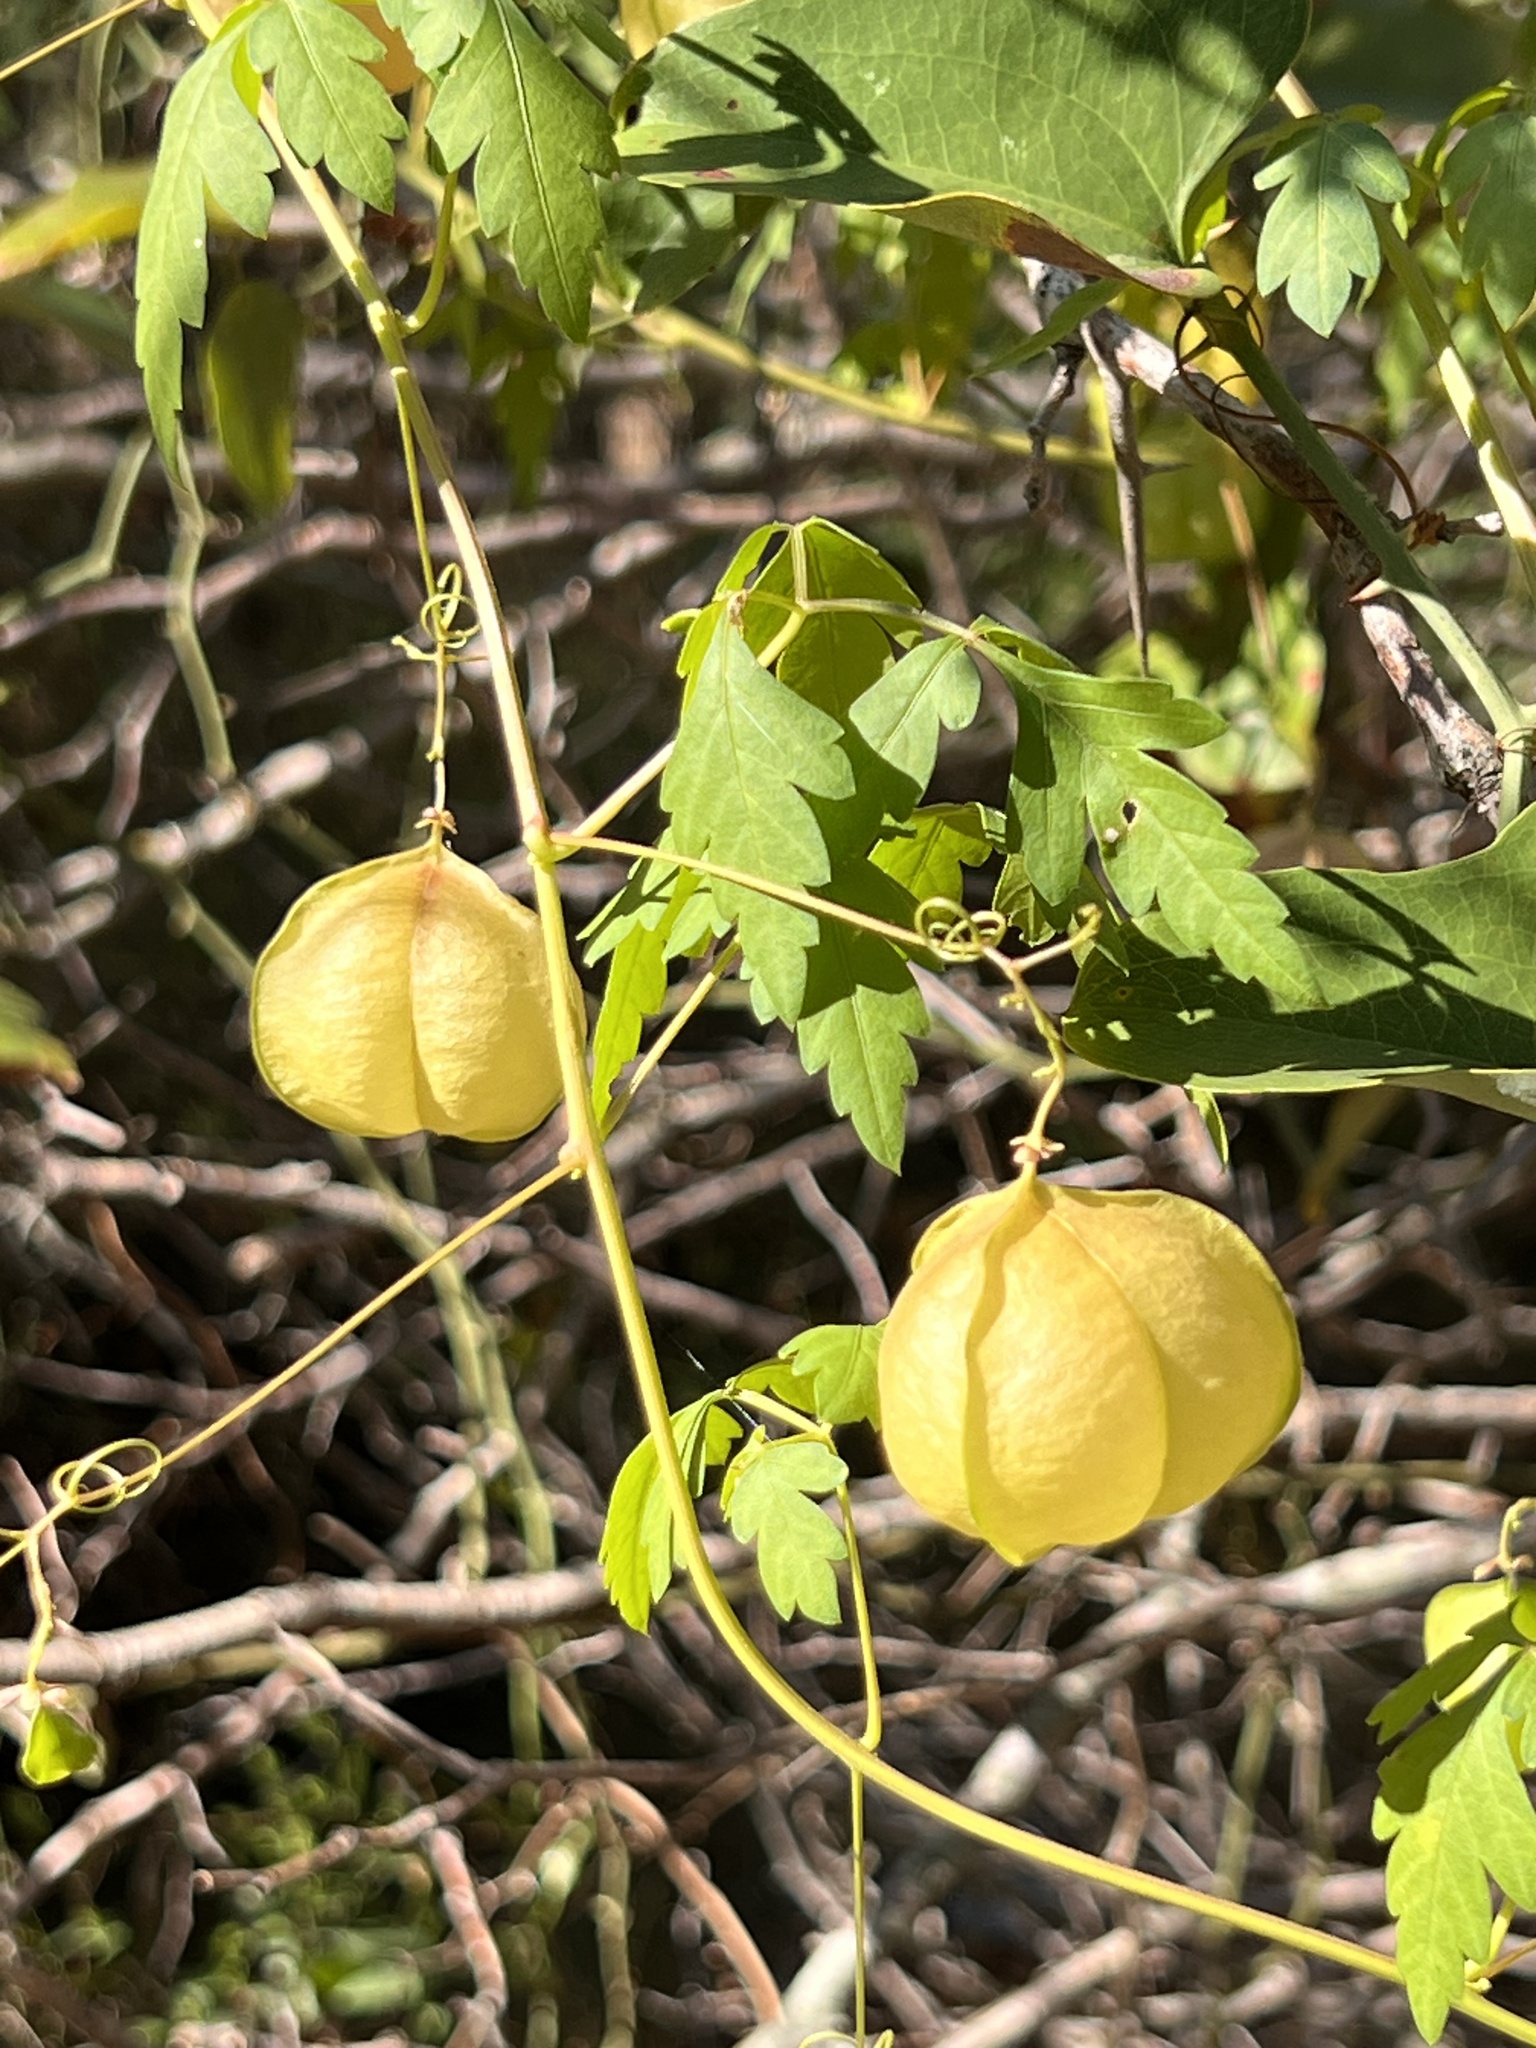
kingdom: Plantae
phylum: Tracheophyta
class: Magnoliopsida
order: Sapindales
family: Sapindaceae
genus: Cardiospermum
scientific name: Cardiospermum halicacabum
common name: Balloon vine
